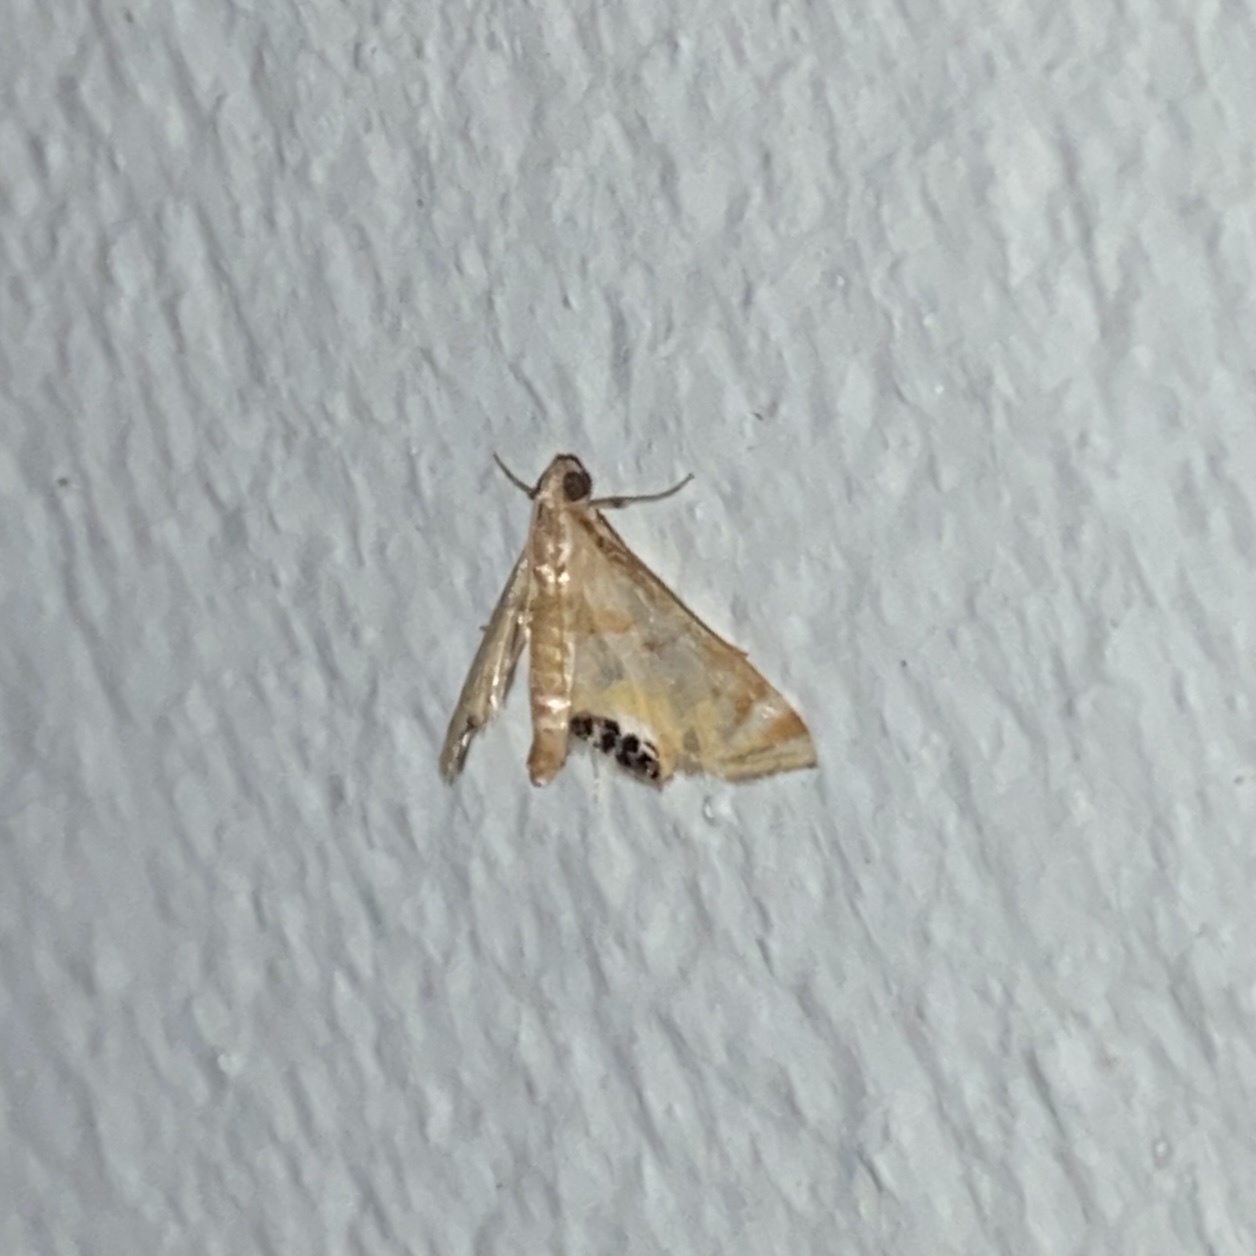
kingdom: Animalia
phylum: Arthropoda
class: Insecta
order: Lepidoptera
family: Crambidae
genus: Petrophila
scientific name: Petrophila opulentalis
